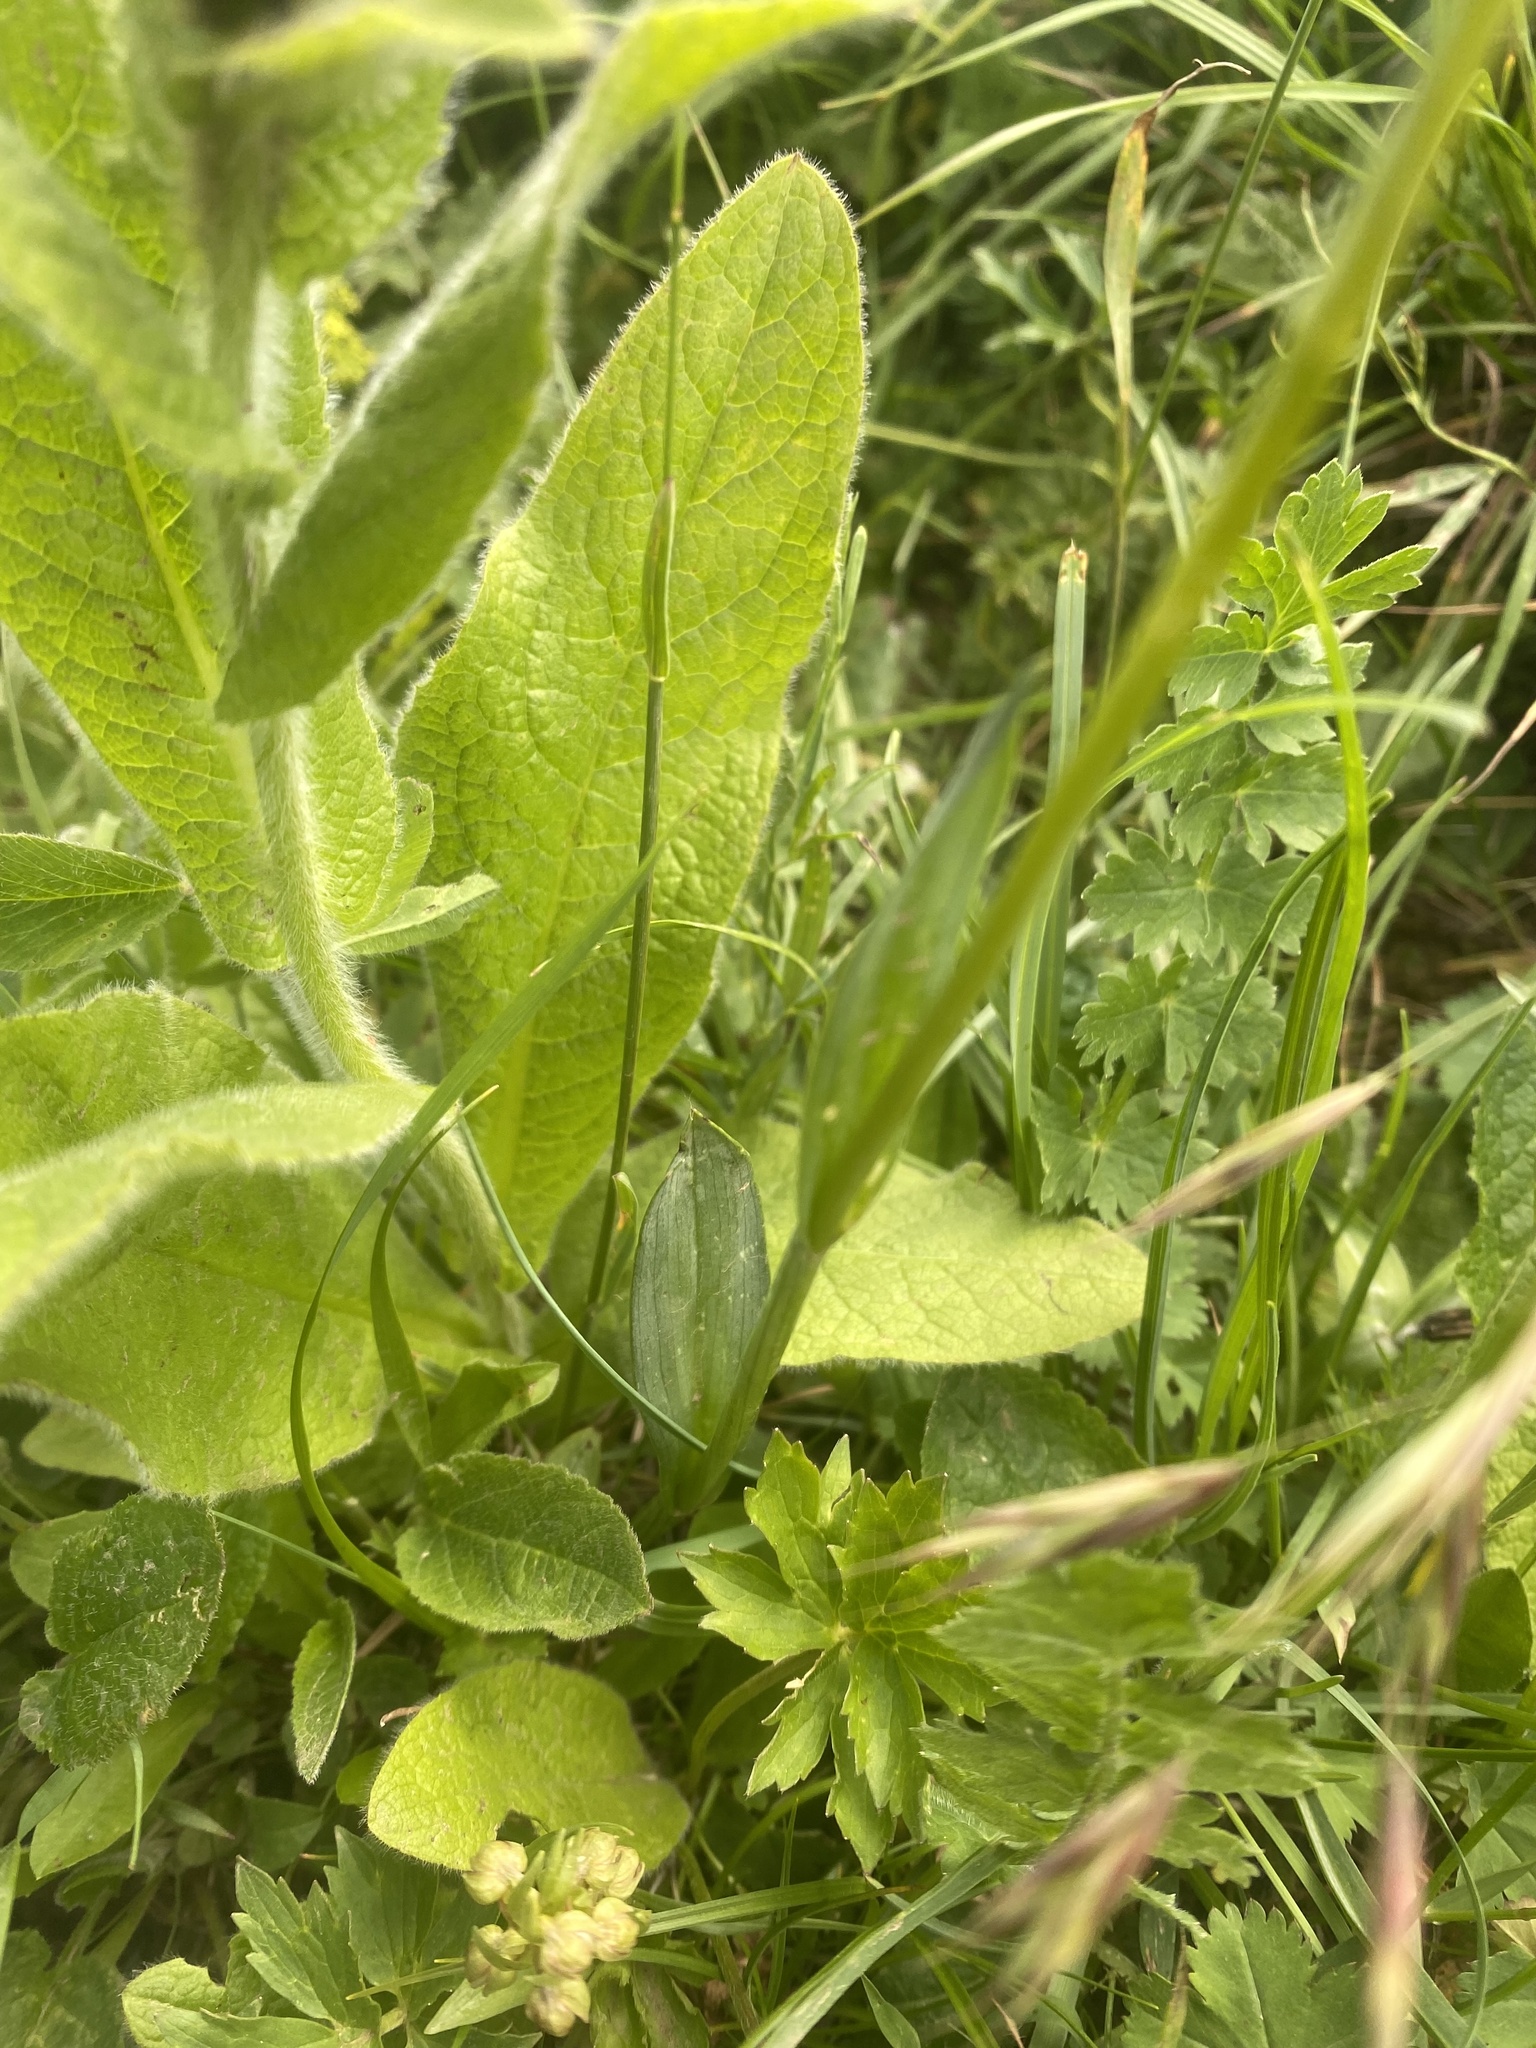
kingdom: Plantae
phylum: Tracheophyta
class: Liliopsida
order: Asparagales
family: Orchidaceae
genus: Traunsteinera
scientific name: Traunsteinera sphaerica
